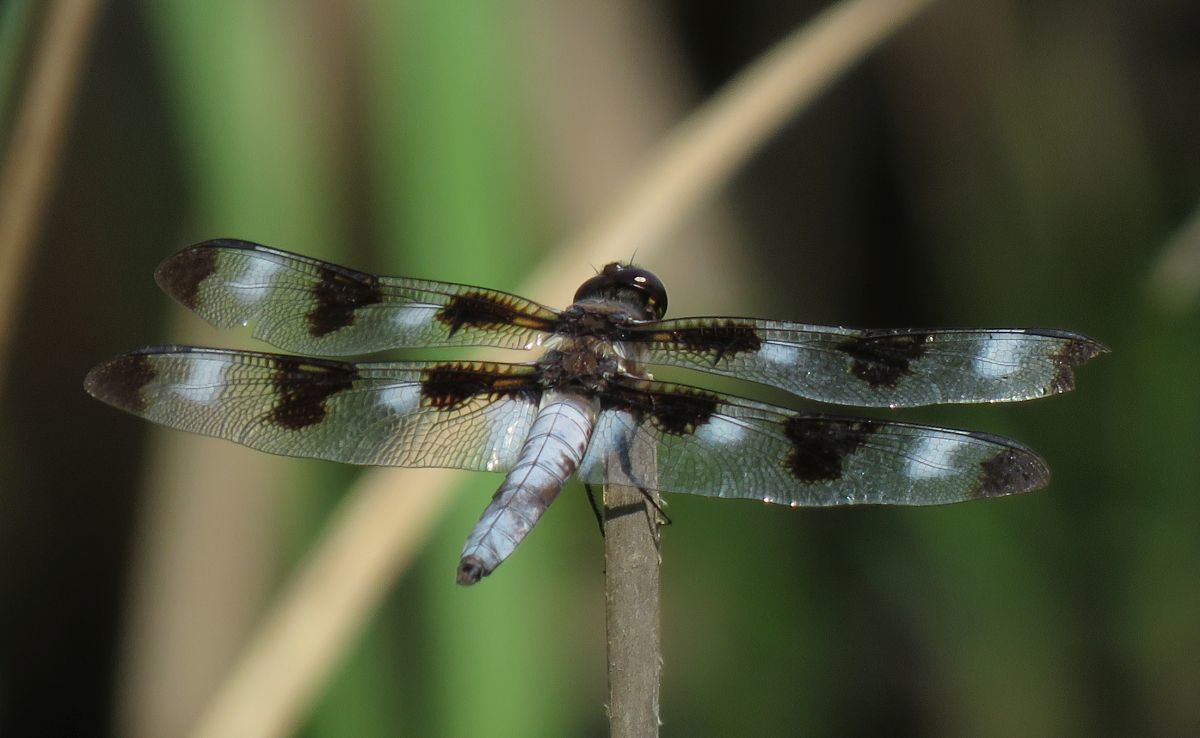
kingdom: Animalia
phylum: Arthropoda
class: Insecta
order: Odonata
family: Libellulidae
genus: Libellula
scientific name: Libellula pulchella
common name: Twelve-spotted skimmer
